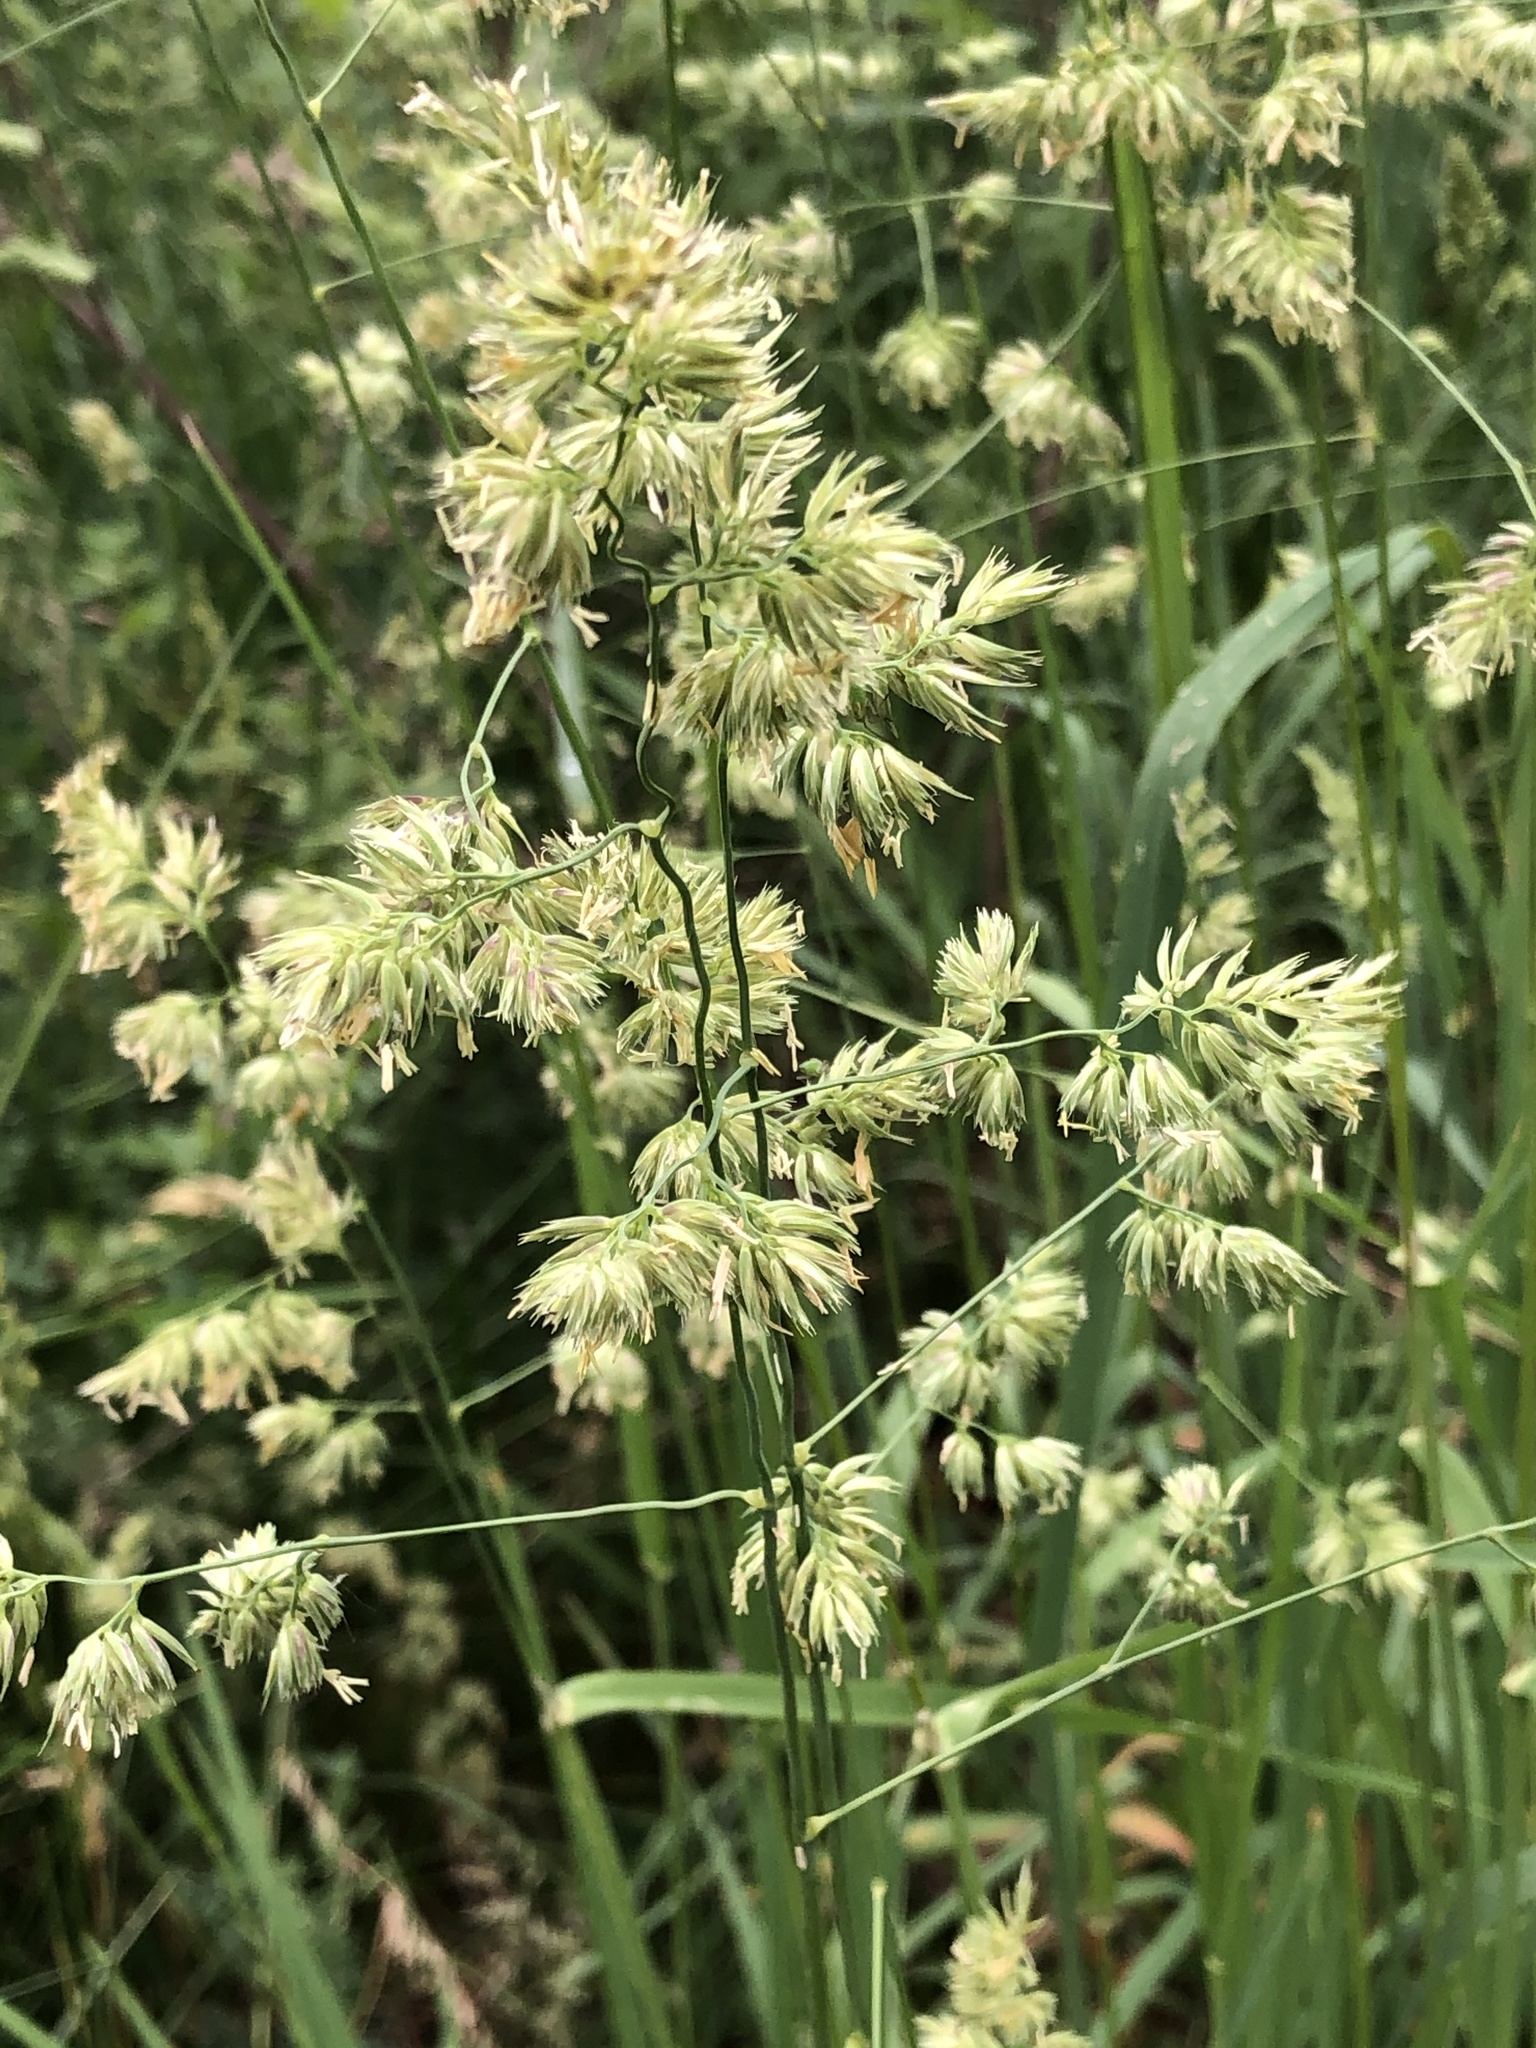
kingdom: Plantae
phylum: Tracheophyta
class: Liliopsida
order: Poales
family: Poaceae
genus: Dactylis
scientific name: Dactylis glomerata
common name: Orchardgrass
